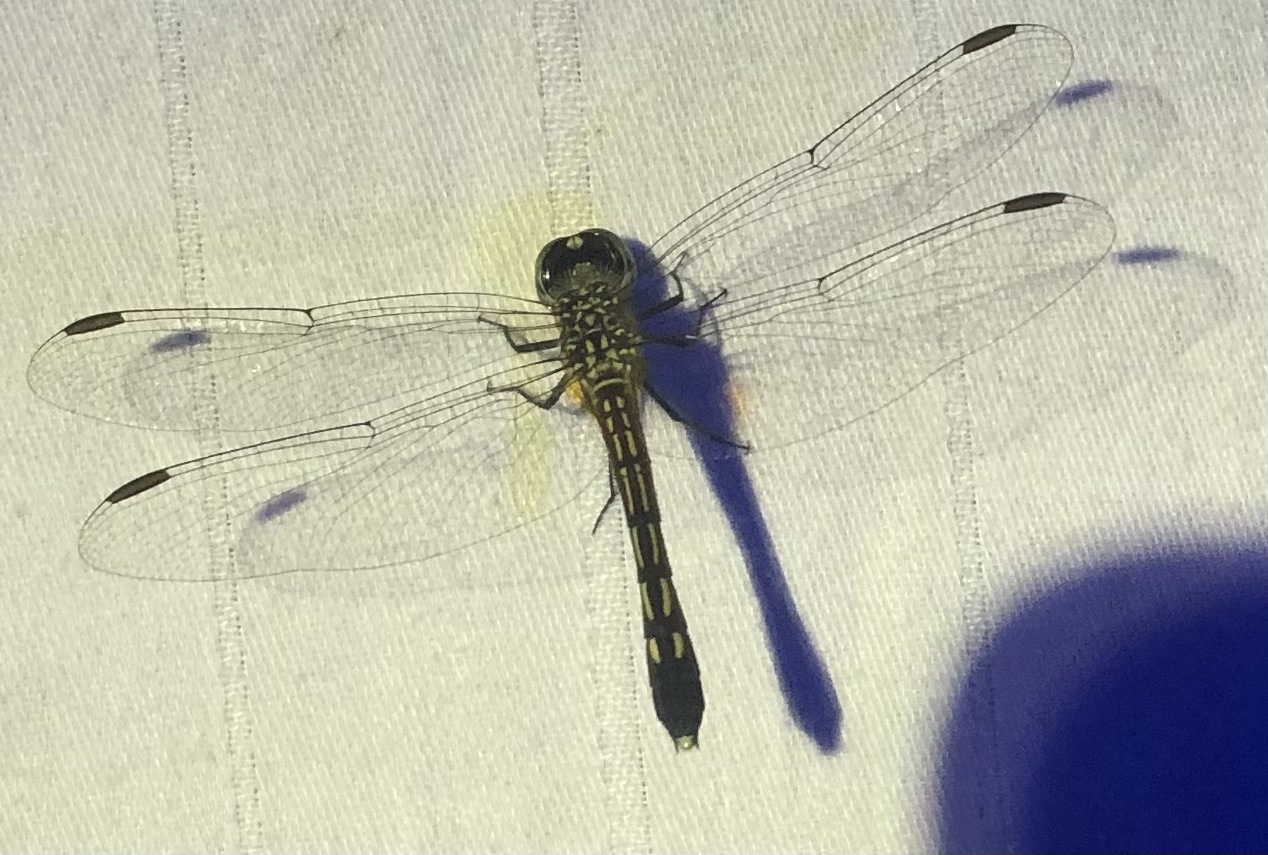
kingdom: Animalia
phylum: Arthropoda
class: Insecta
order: Odonata
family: Libellulidae
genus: Pachydiplax
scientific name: Pachydiplax longipennis
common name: Blue dasher
